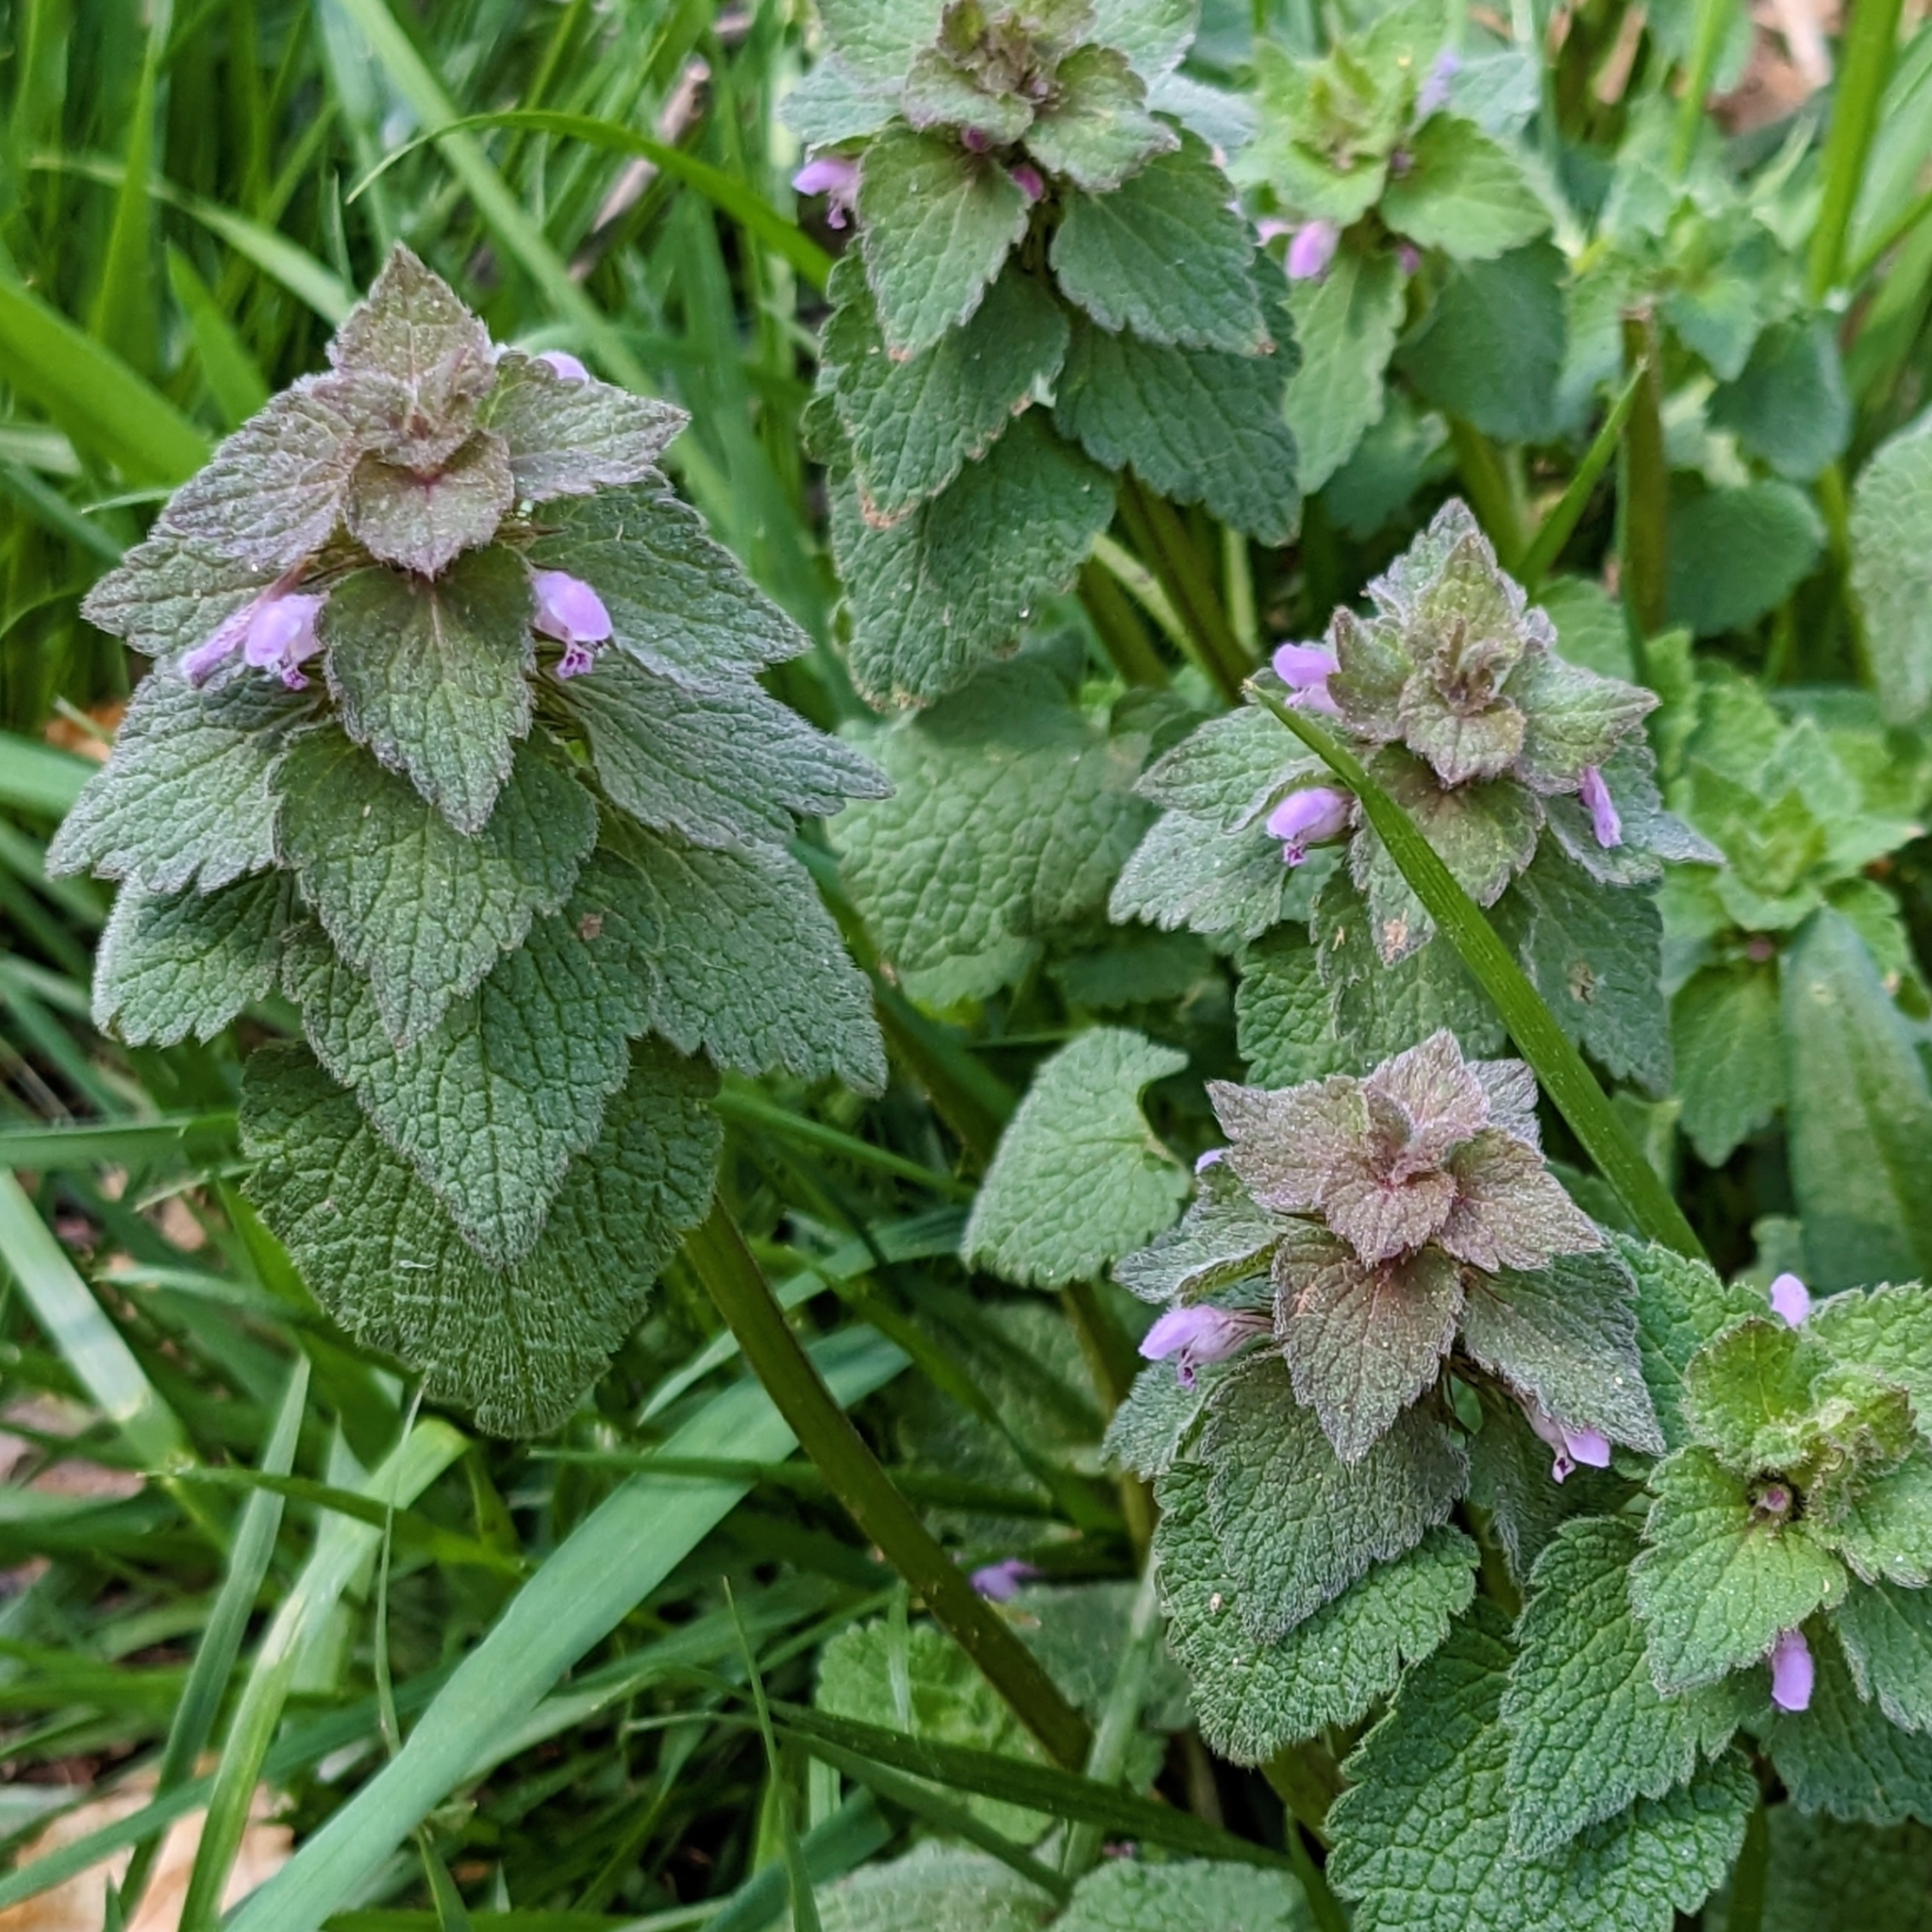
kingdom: Plantae
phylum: Tracheophyta
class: Magnoliopsida
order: Lamiales
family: Lamiaceae
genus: Lamium
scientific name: Lamium purpureum
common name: Red dead-nettle
